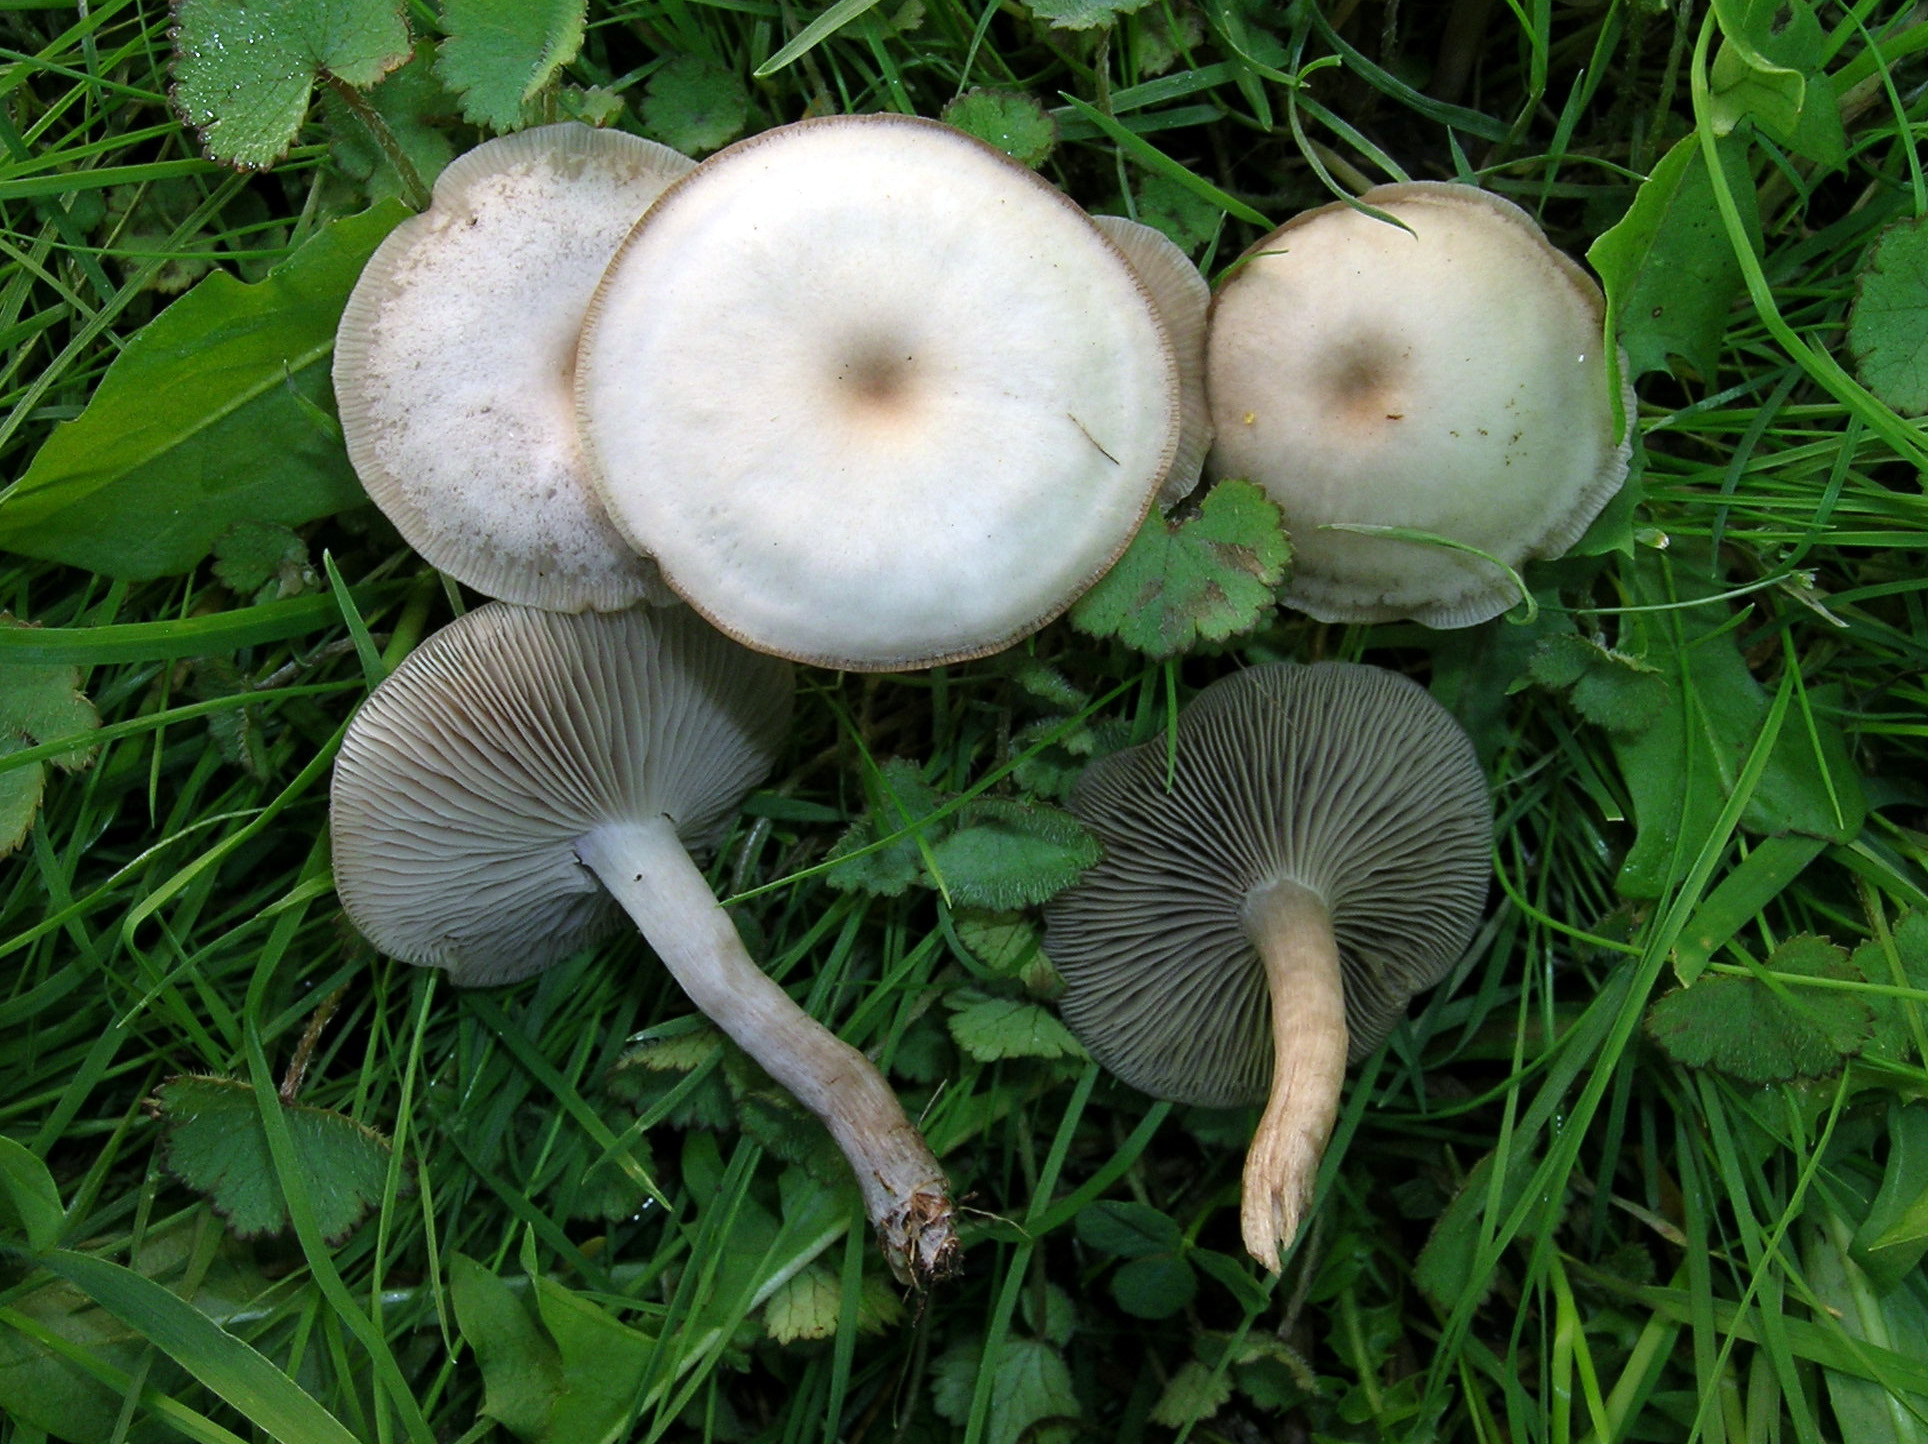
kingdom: Fungi
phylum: Basidiomycota
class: Agaricomycetes
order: Agaricales
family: Tricholomataceae
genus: Clitocybe
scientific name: Clitocybe paraditopa
